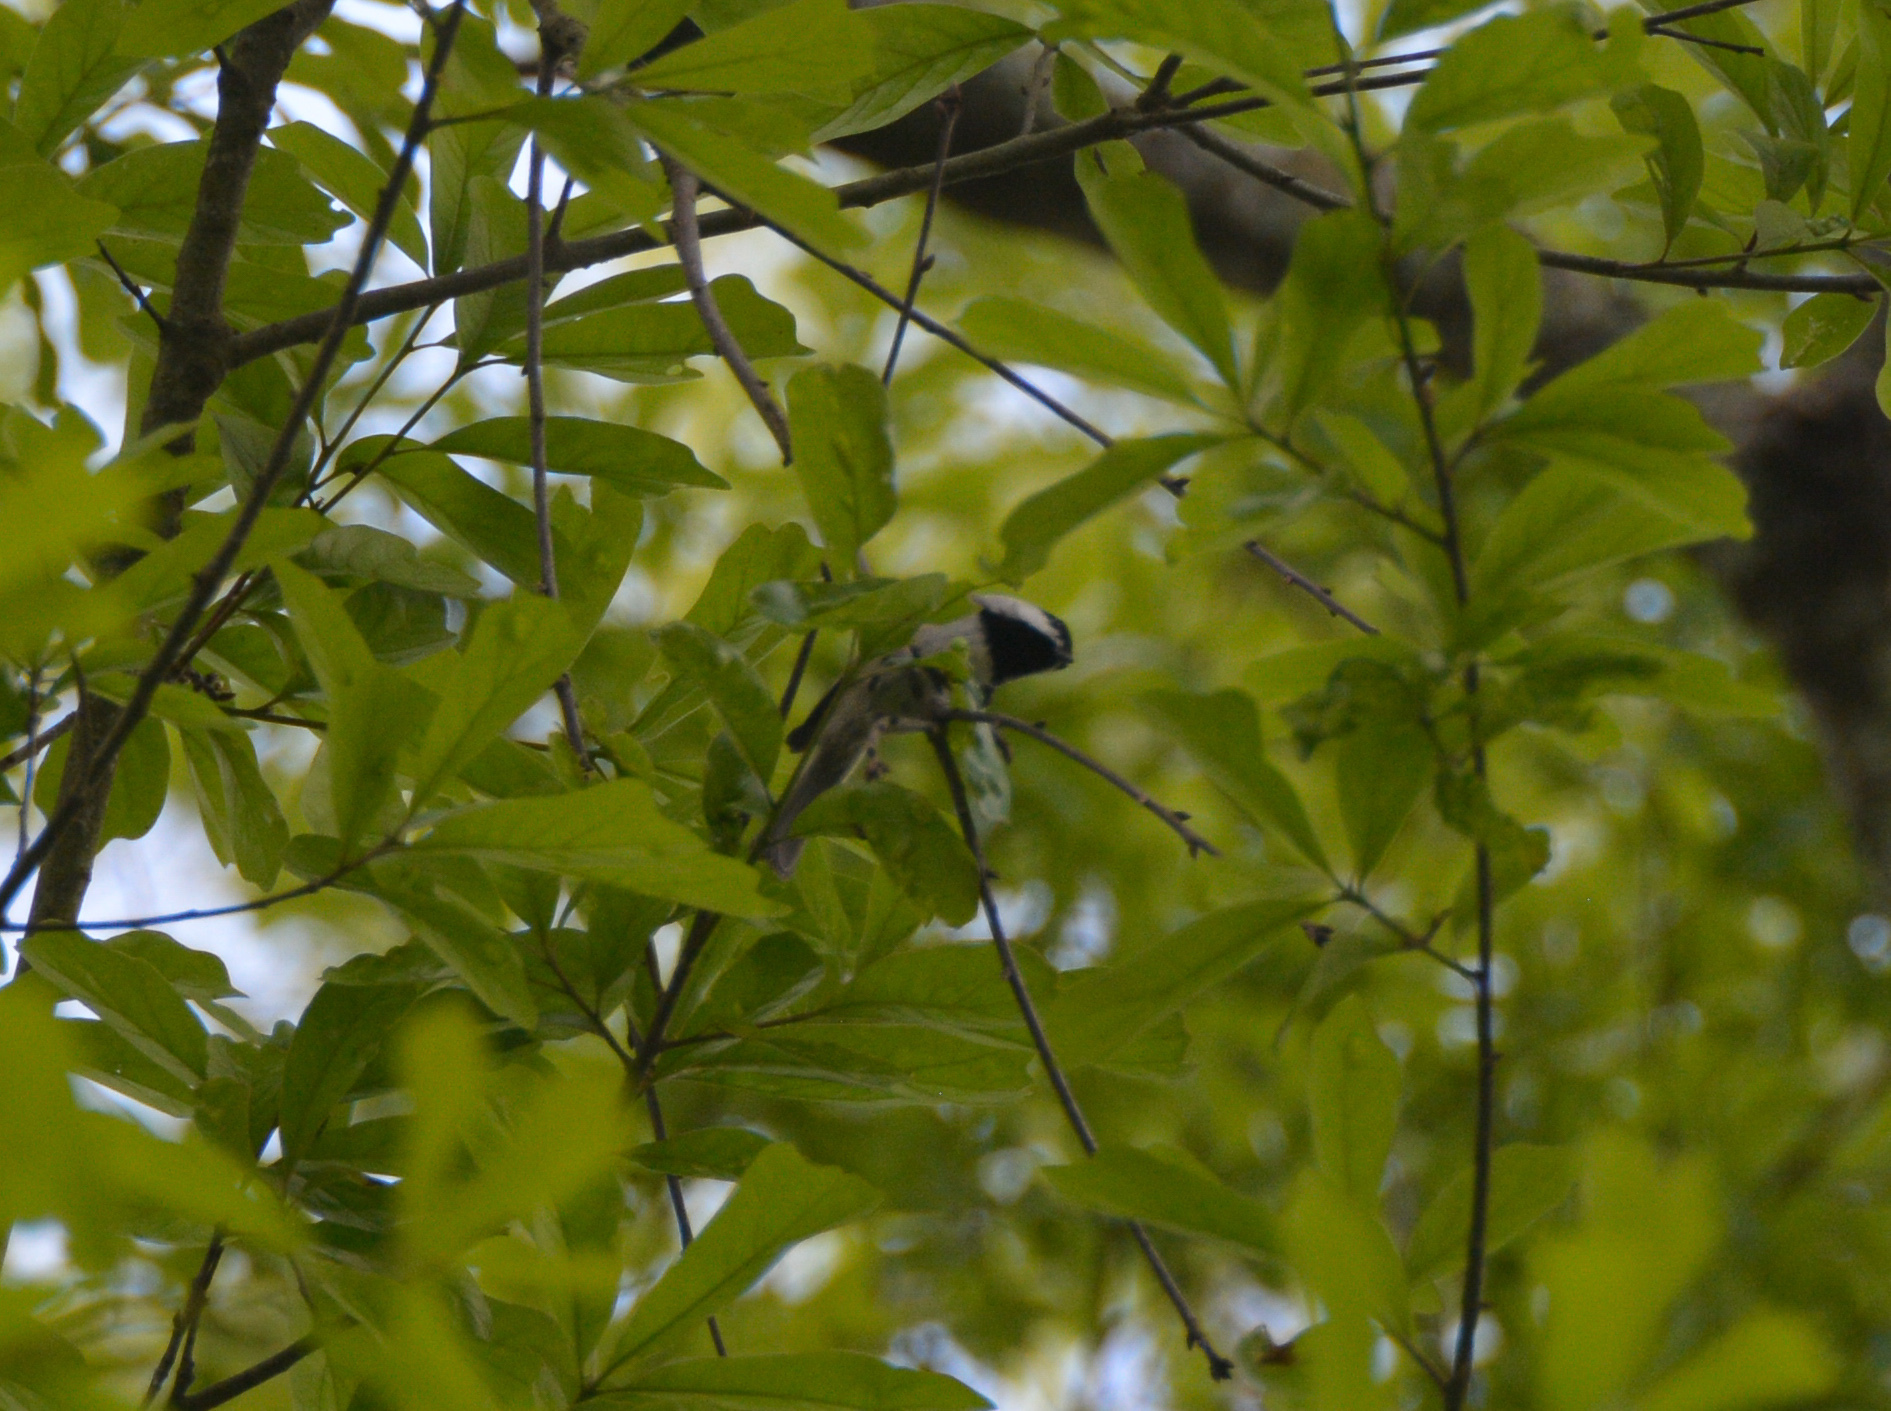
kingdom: Animalia
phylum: Chordata
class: Aves
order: Passeriformes
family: Paridae
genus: Poecile
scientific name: Poecile carolinensis
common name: Carolina chickadee
